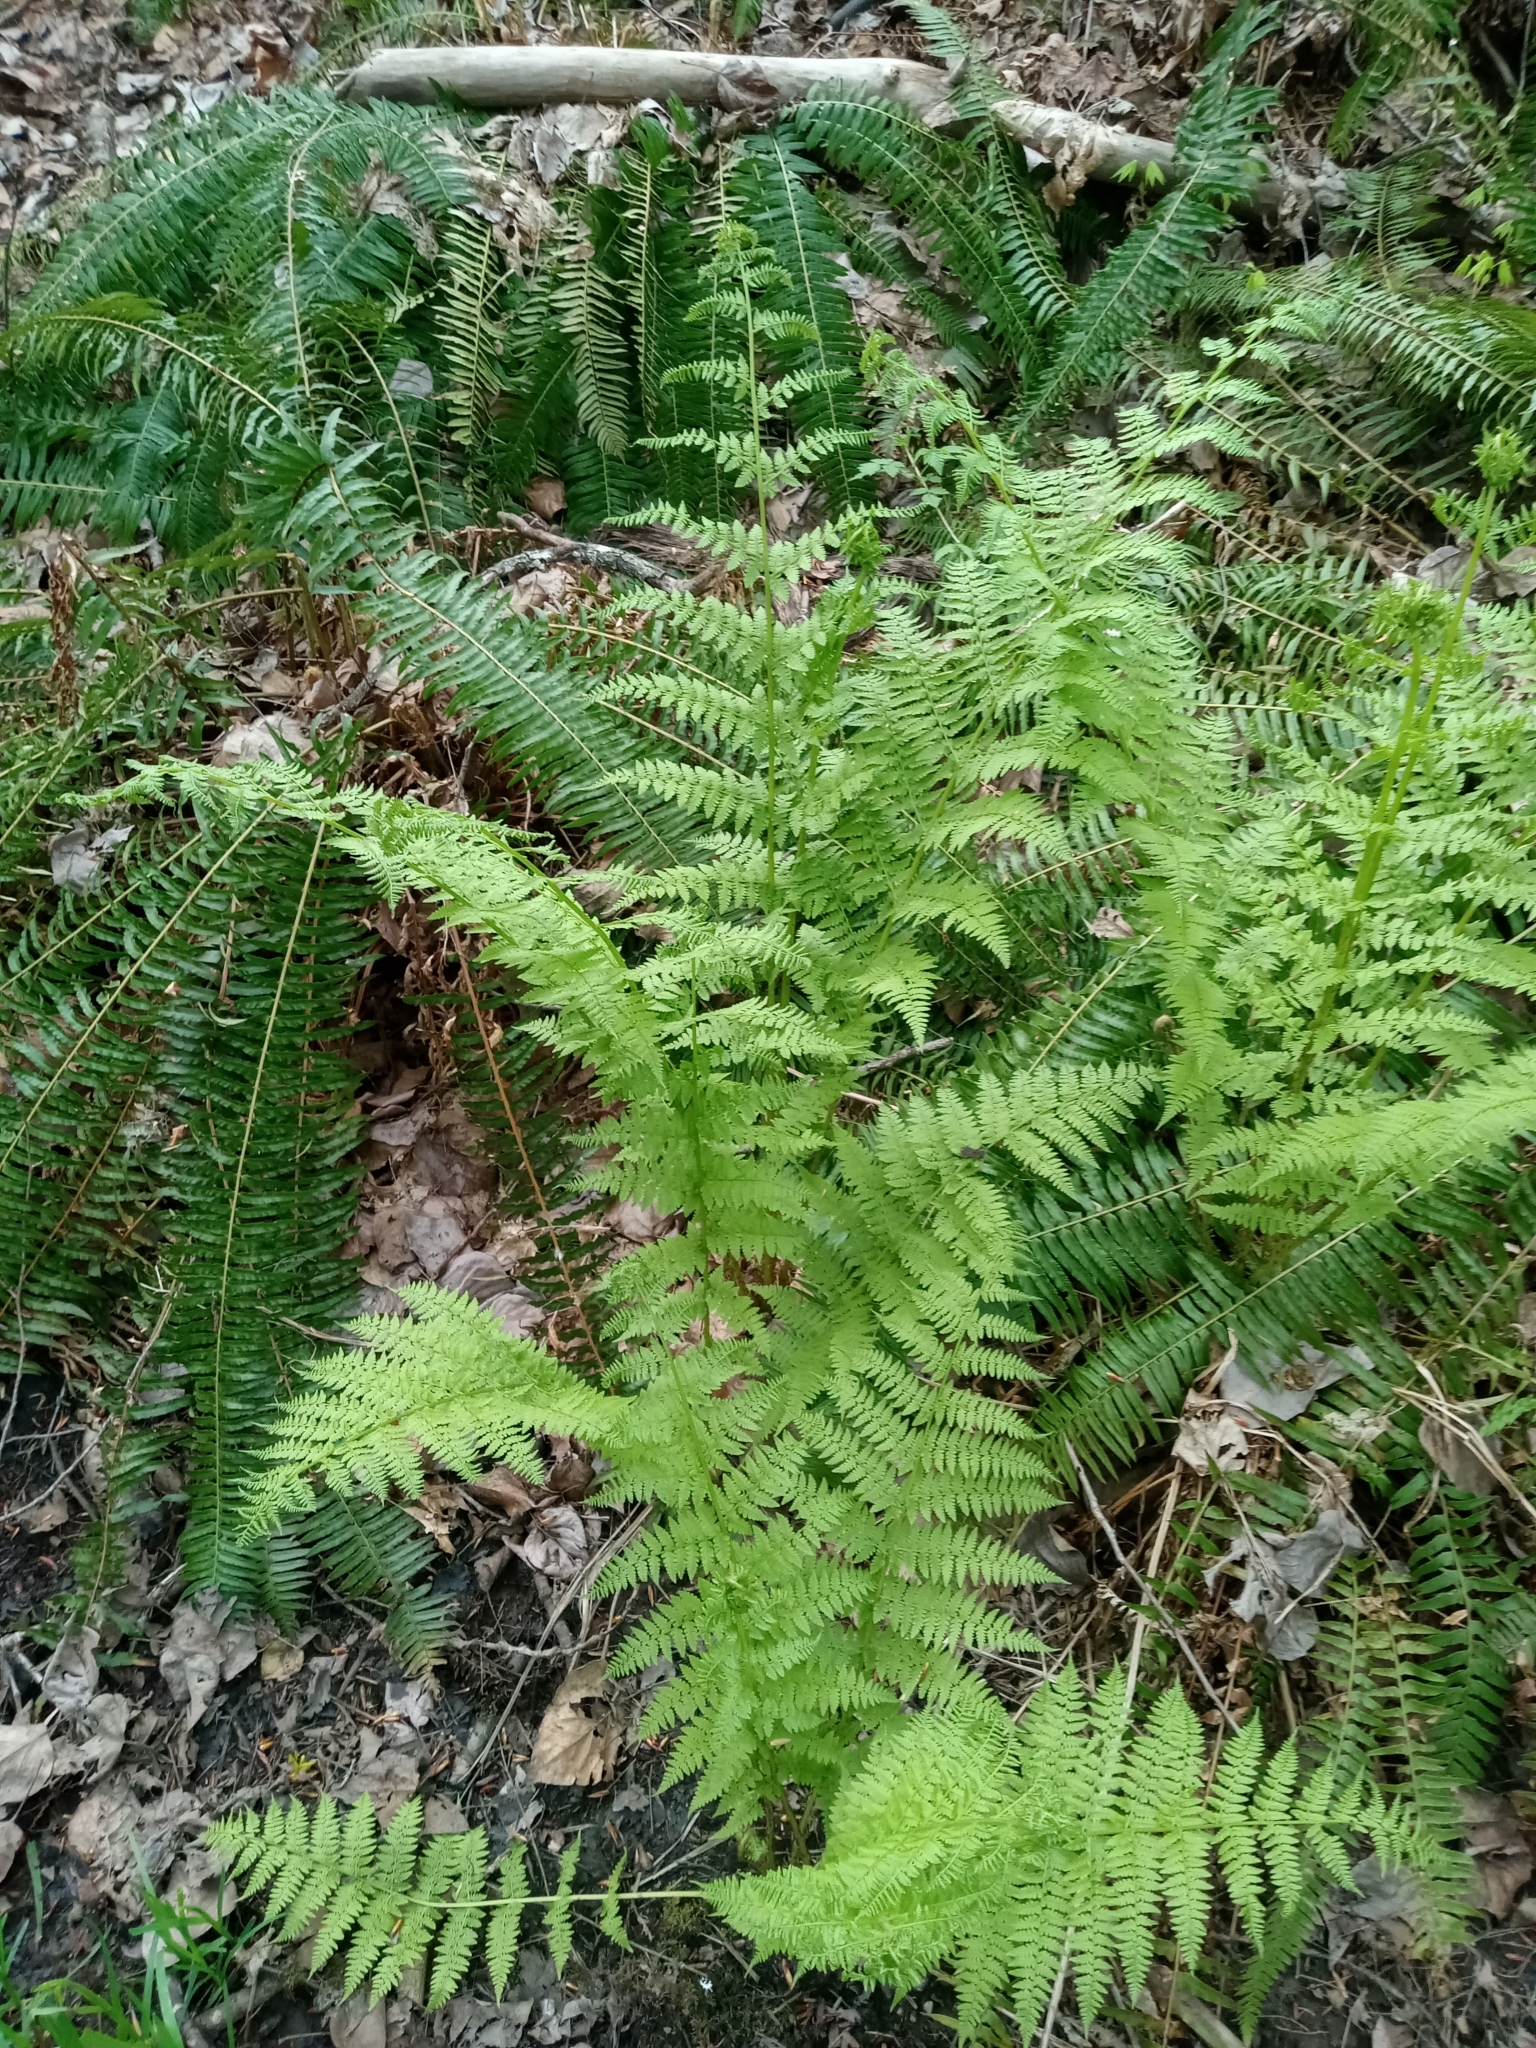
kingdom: Plantae
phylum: Tracheophyta
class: Polypodiopsida
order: Polypodiales
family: Athyriaceae
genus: Athyrium
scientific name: Athyrium filix-femina
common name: Lady fern
